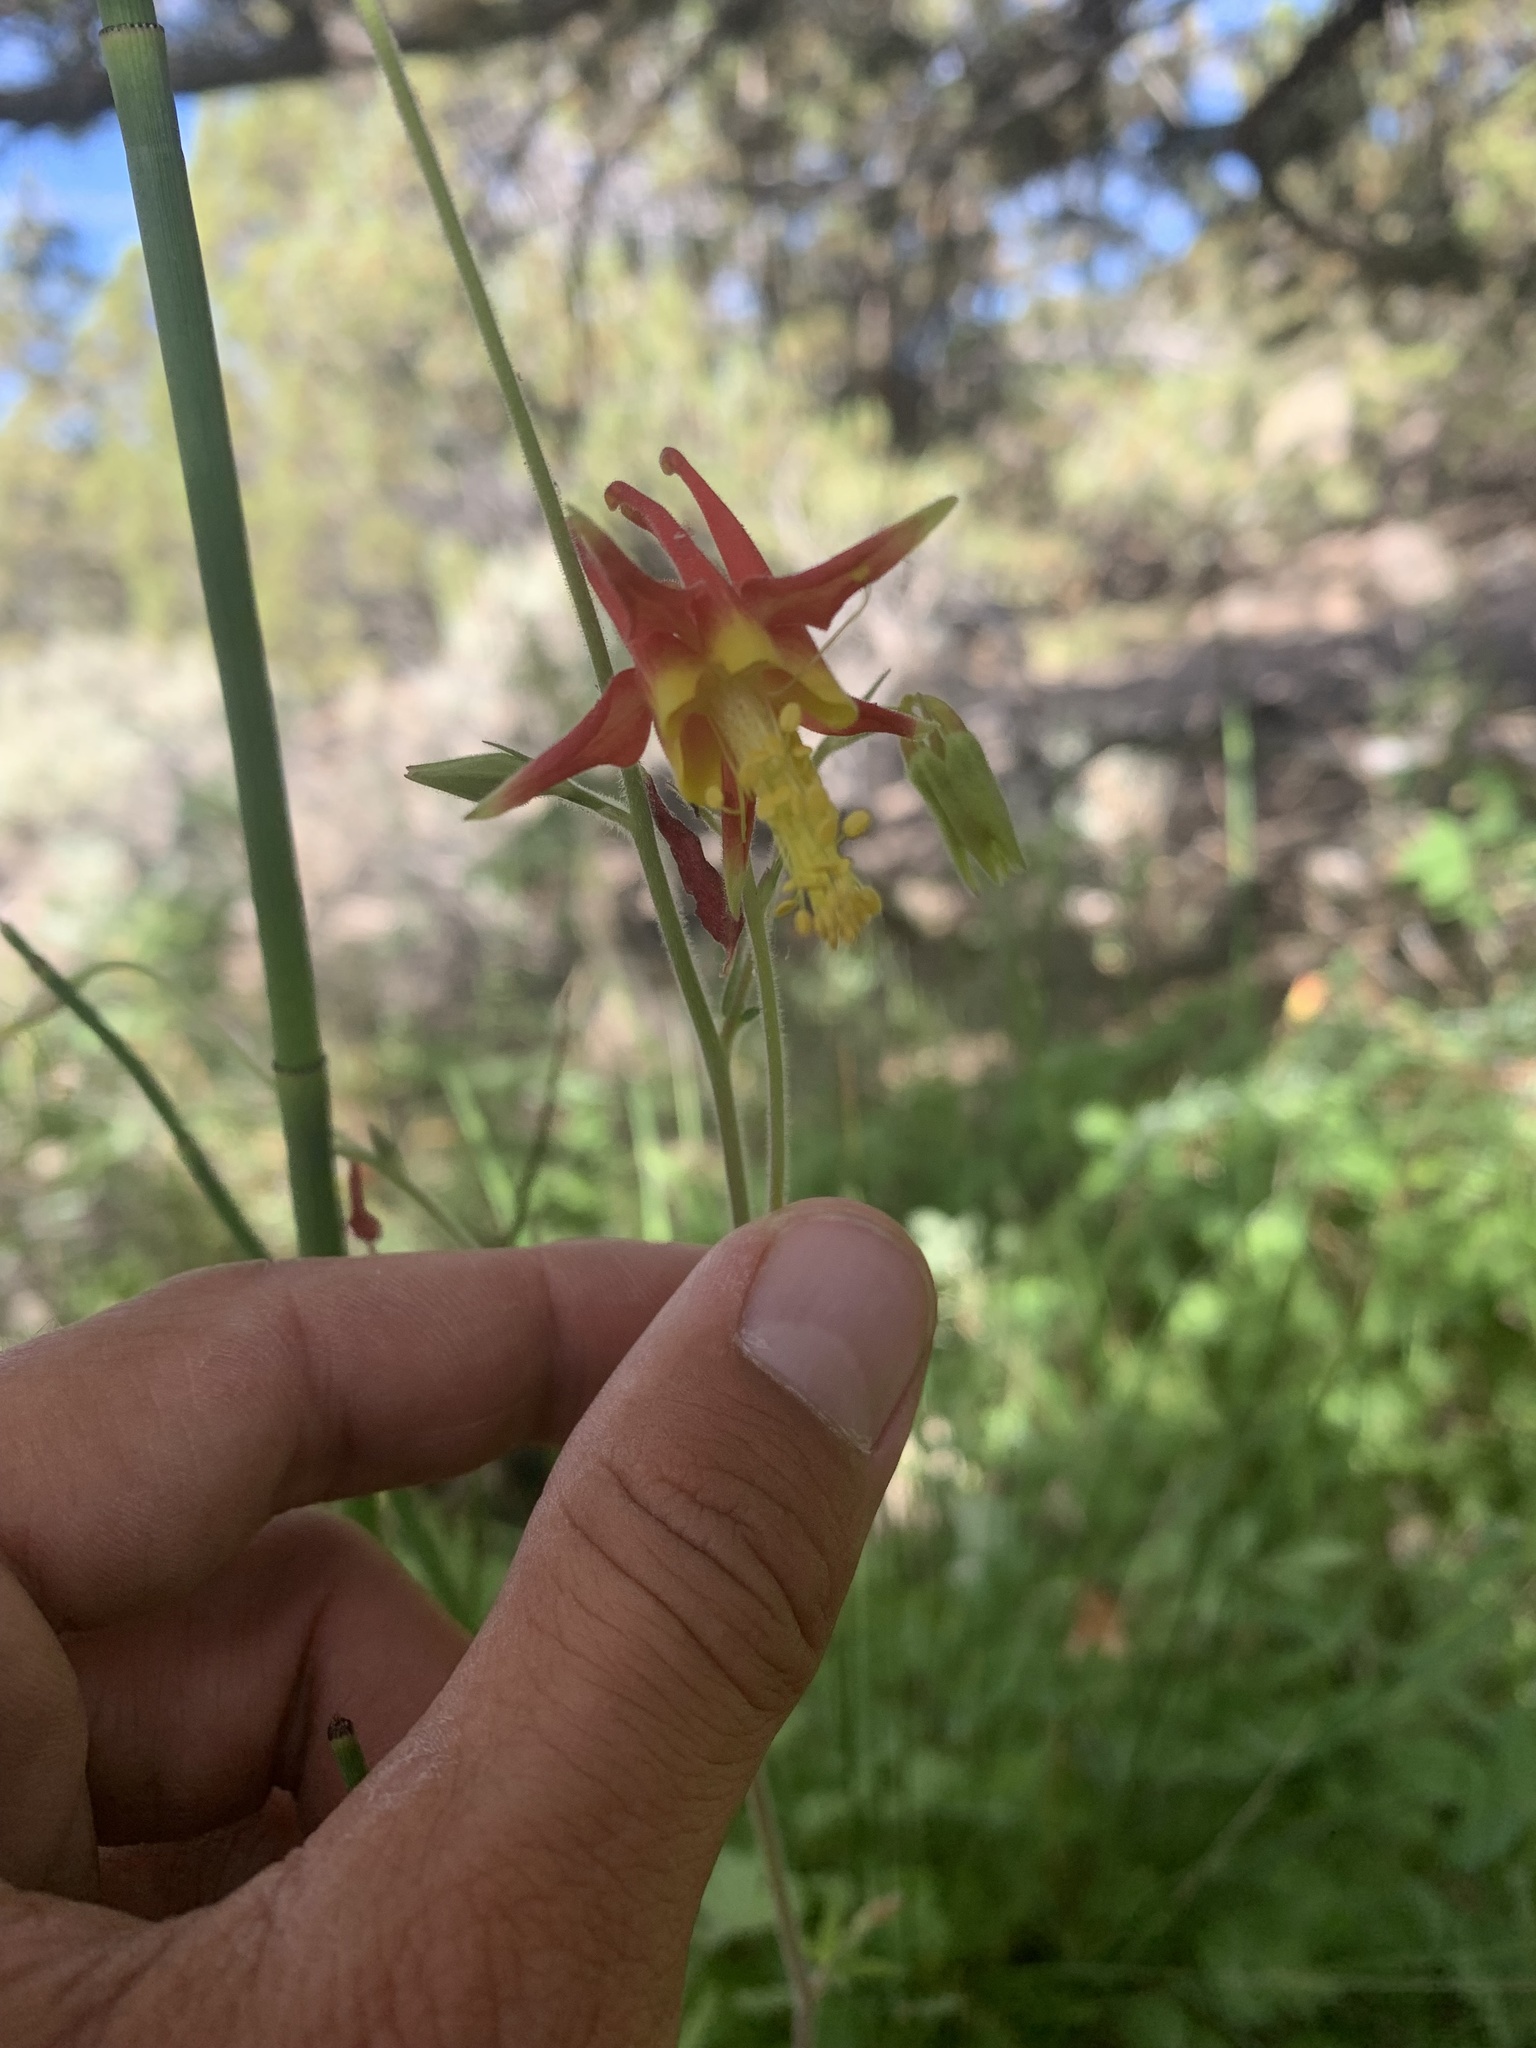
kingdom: Plantae
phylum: Tracheophyta
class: Magnoliopsida
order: Ranunculales
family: Ranunculaceae
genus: Aquilegia
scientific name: Aquilegia formosa
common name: Sitka columbine
